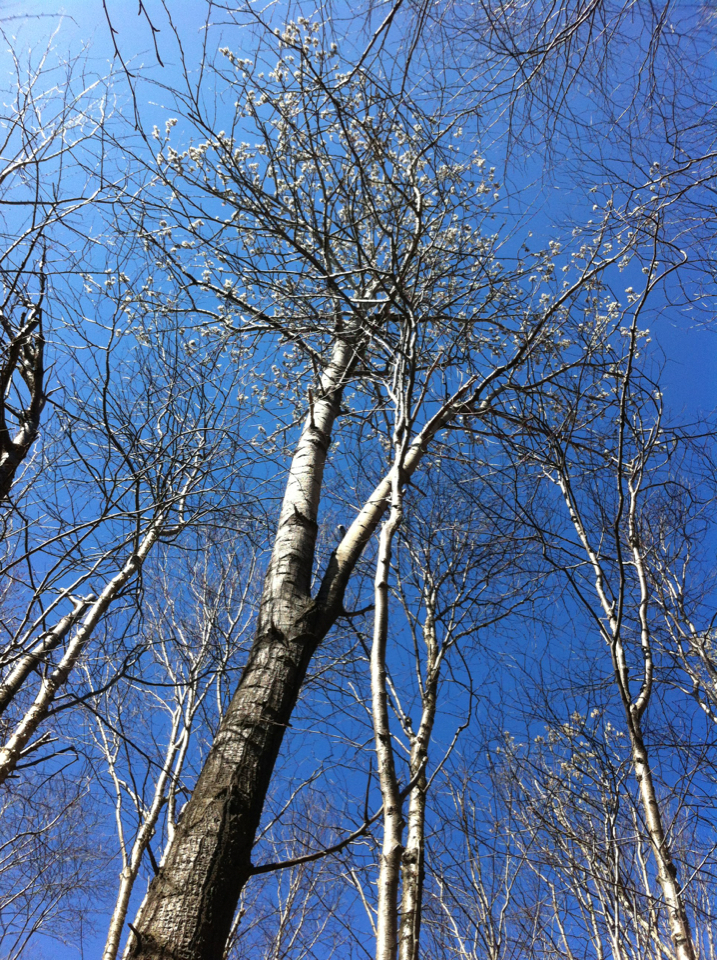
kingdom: Plantae
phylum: Tracheophyta
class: Magnoliopsida
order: Malpighiales
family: Salicaceae
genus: Populus
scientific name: Populus tremuloides
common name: Quaking aspen
